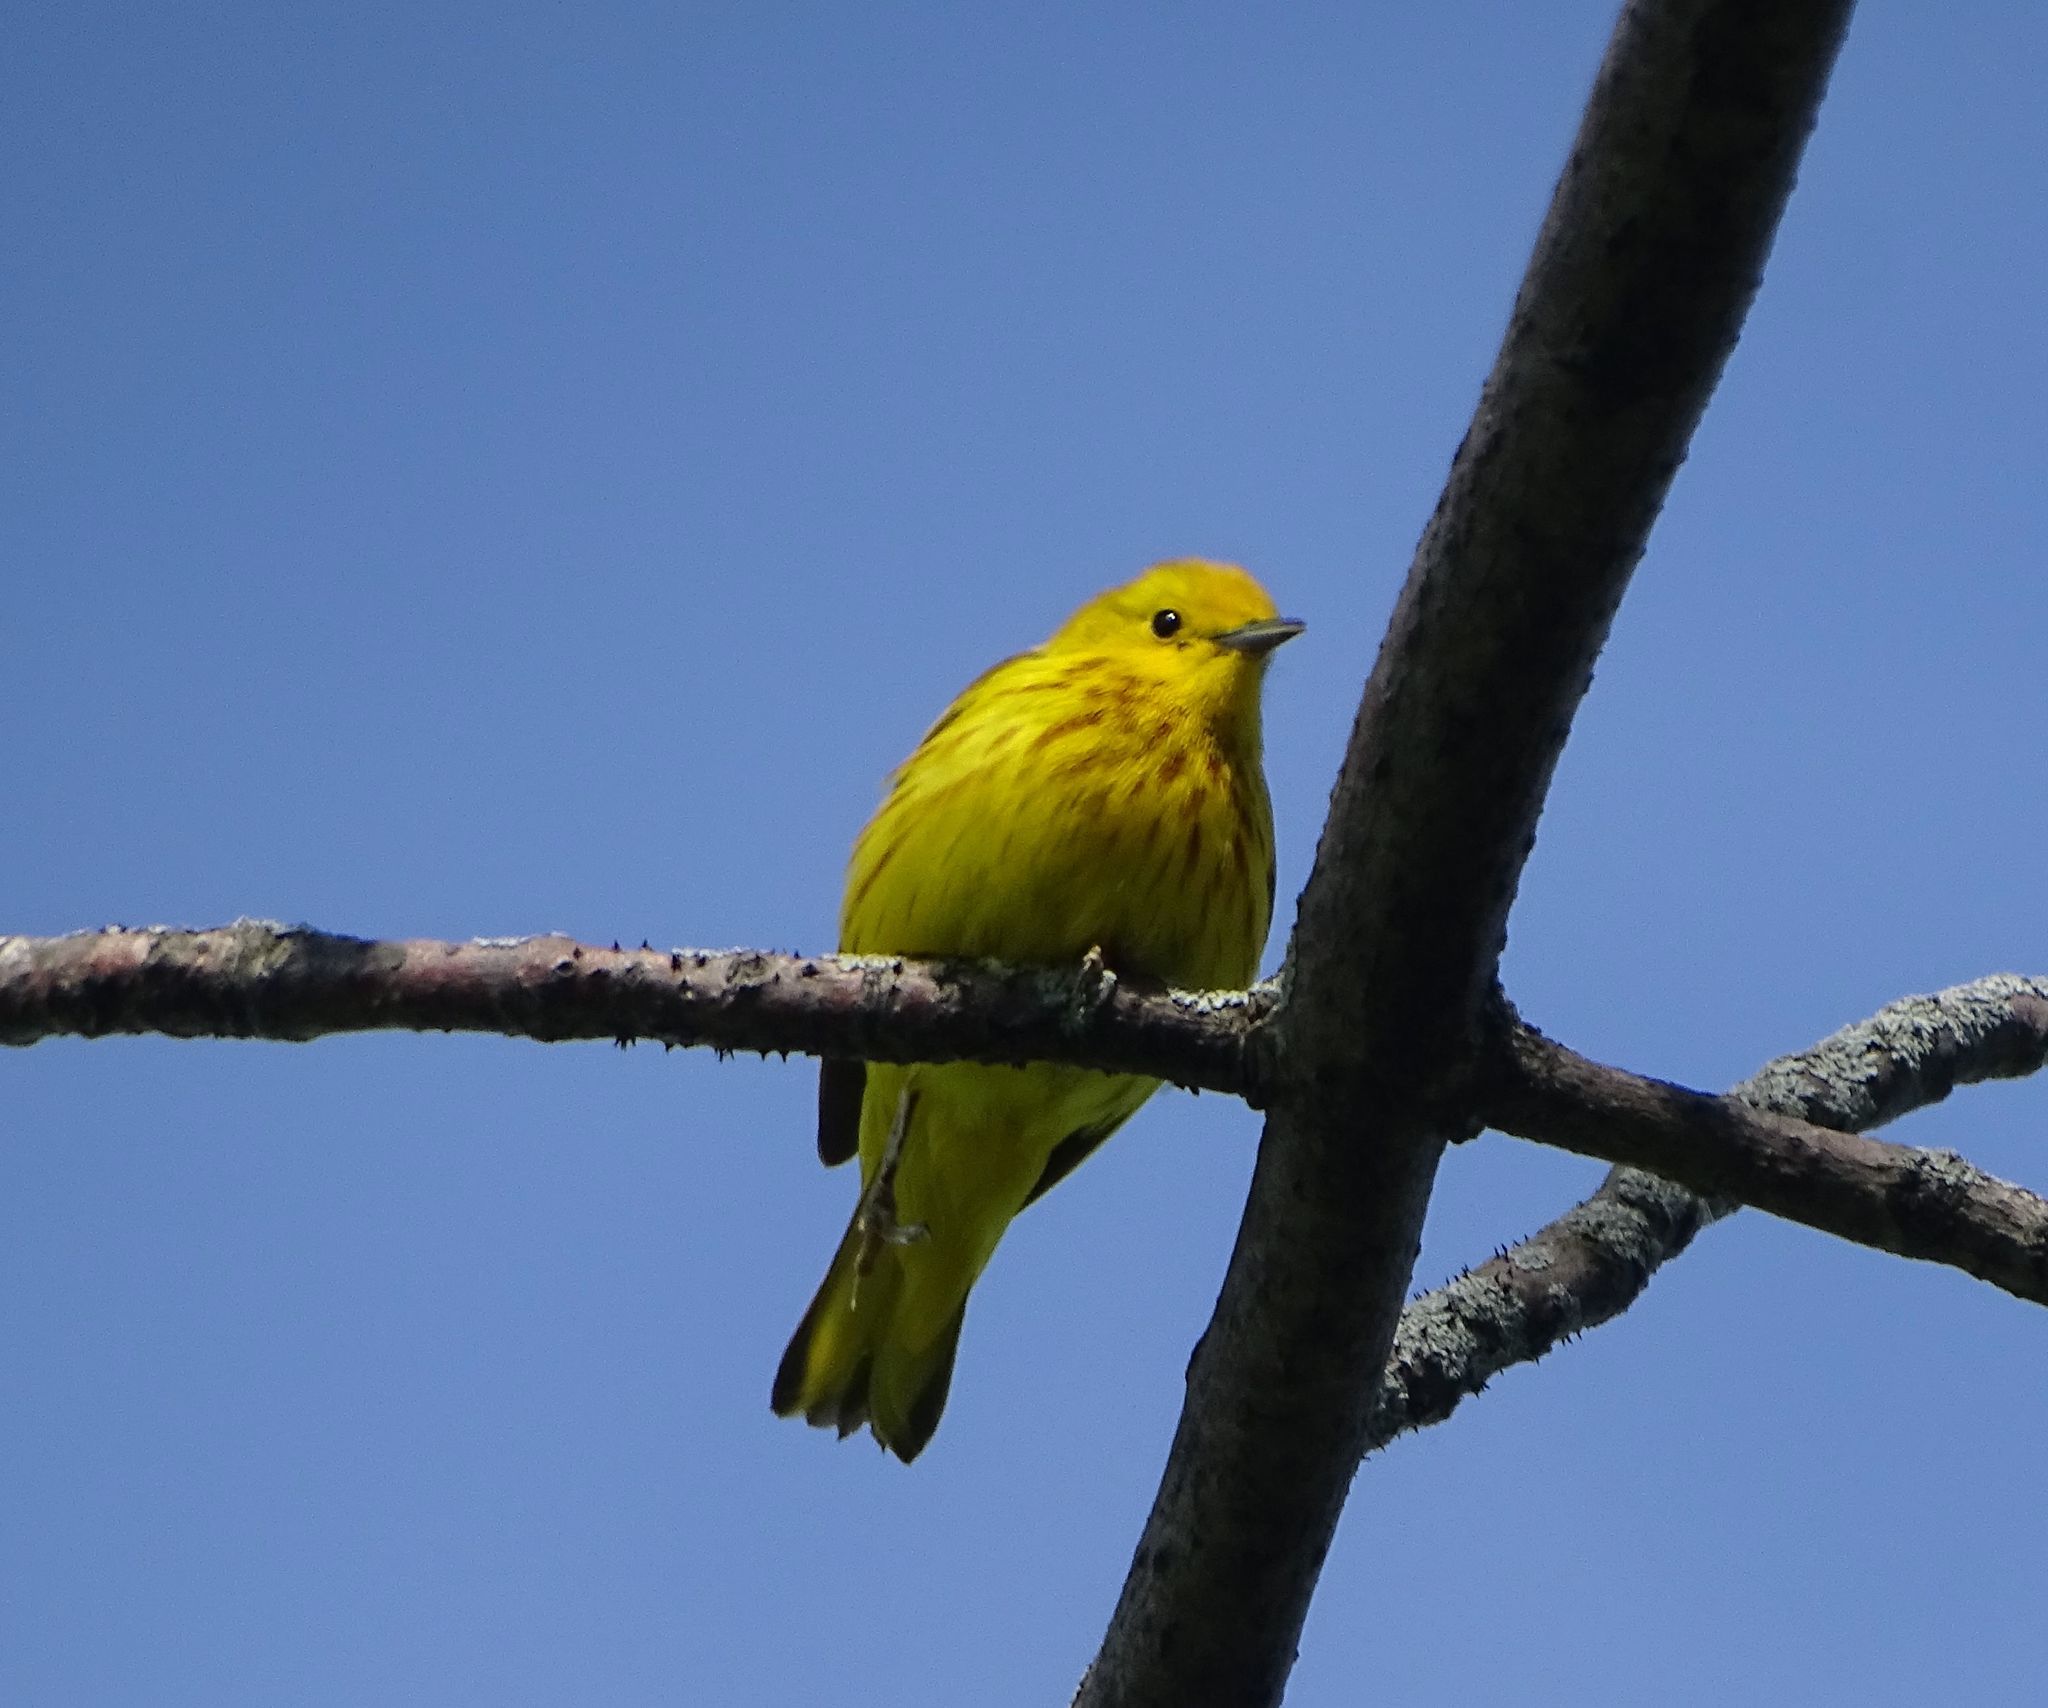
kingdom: Animalia
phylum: Chordata
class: Aves
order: Passeriformes
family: Parulidae
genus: Setophaga
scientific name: Setophaga petechia
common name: Yellow warbler
